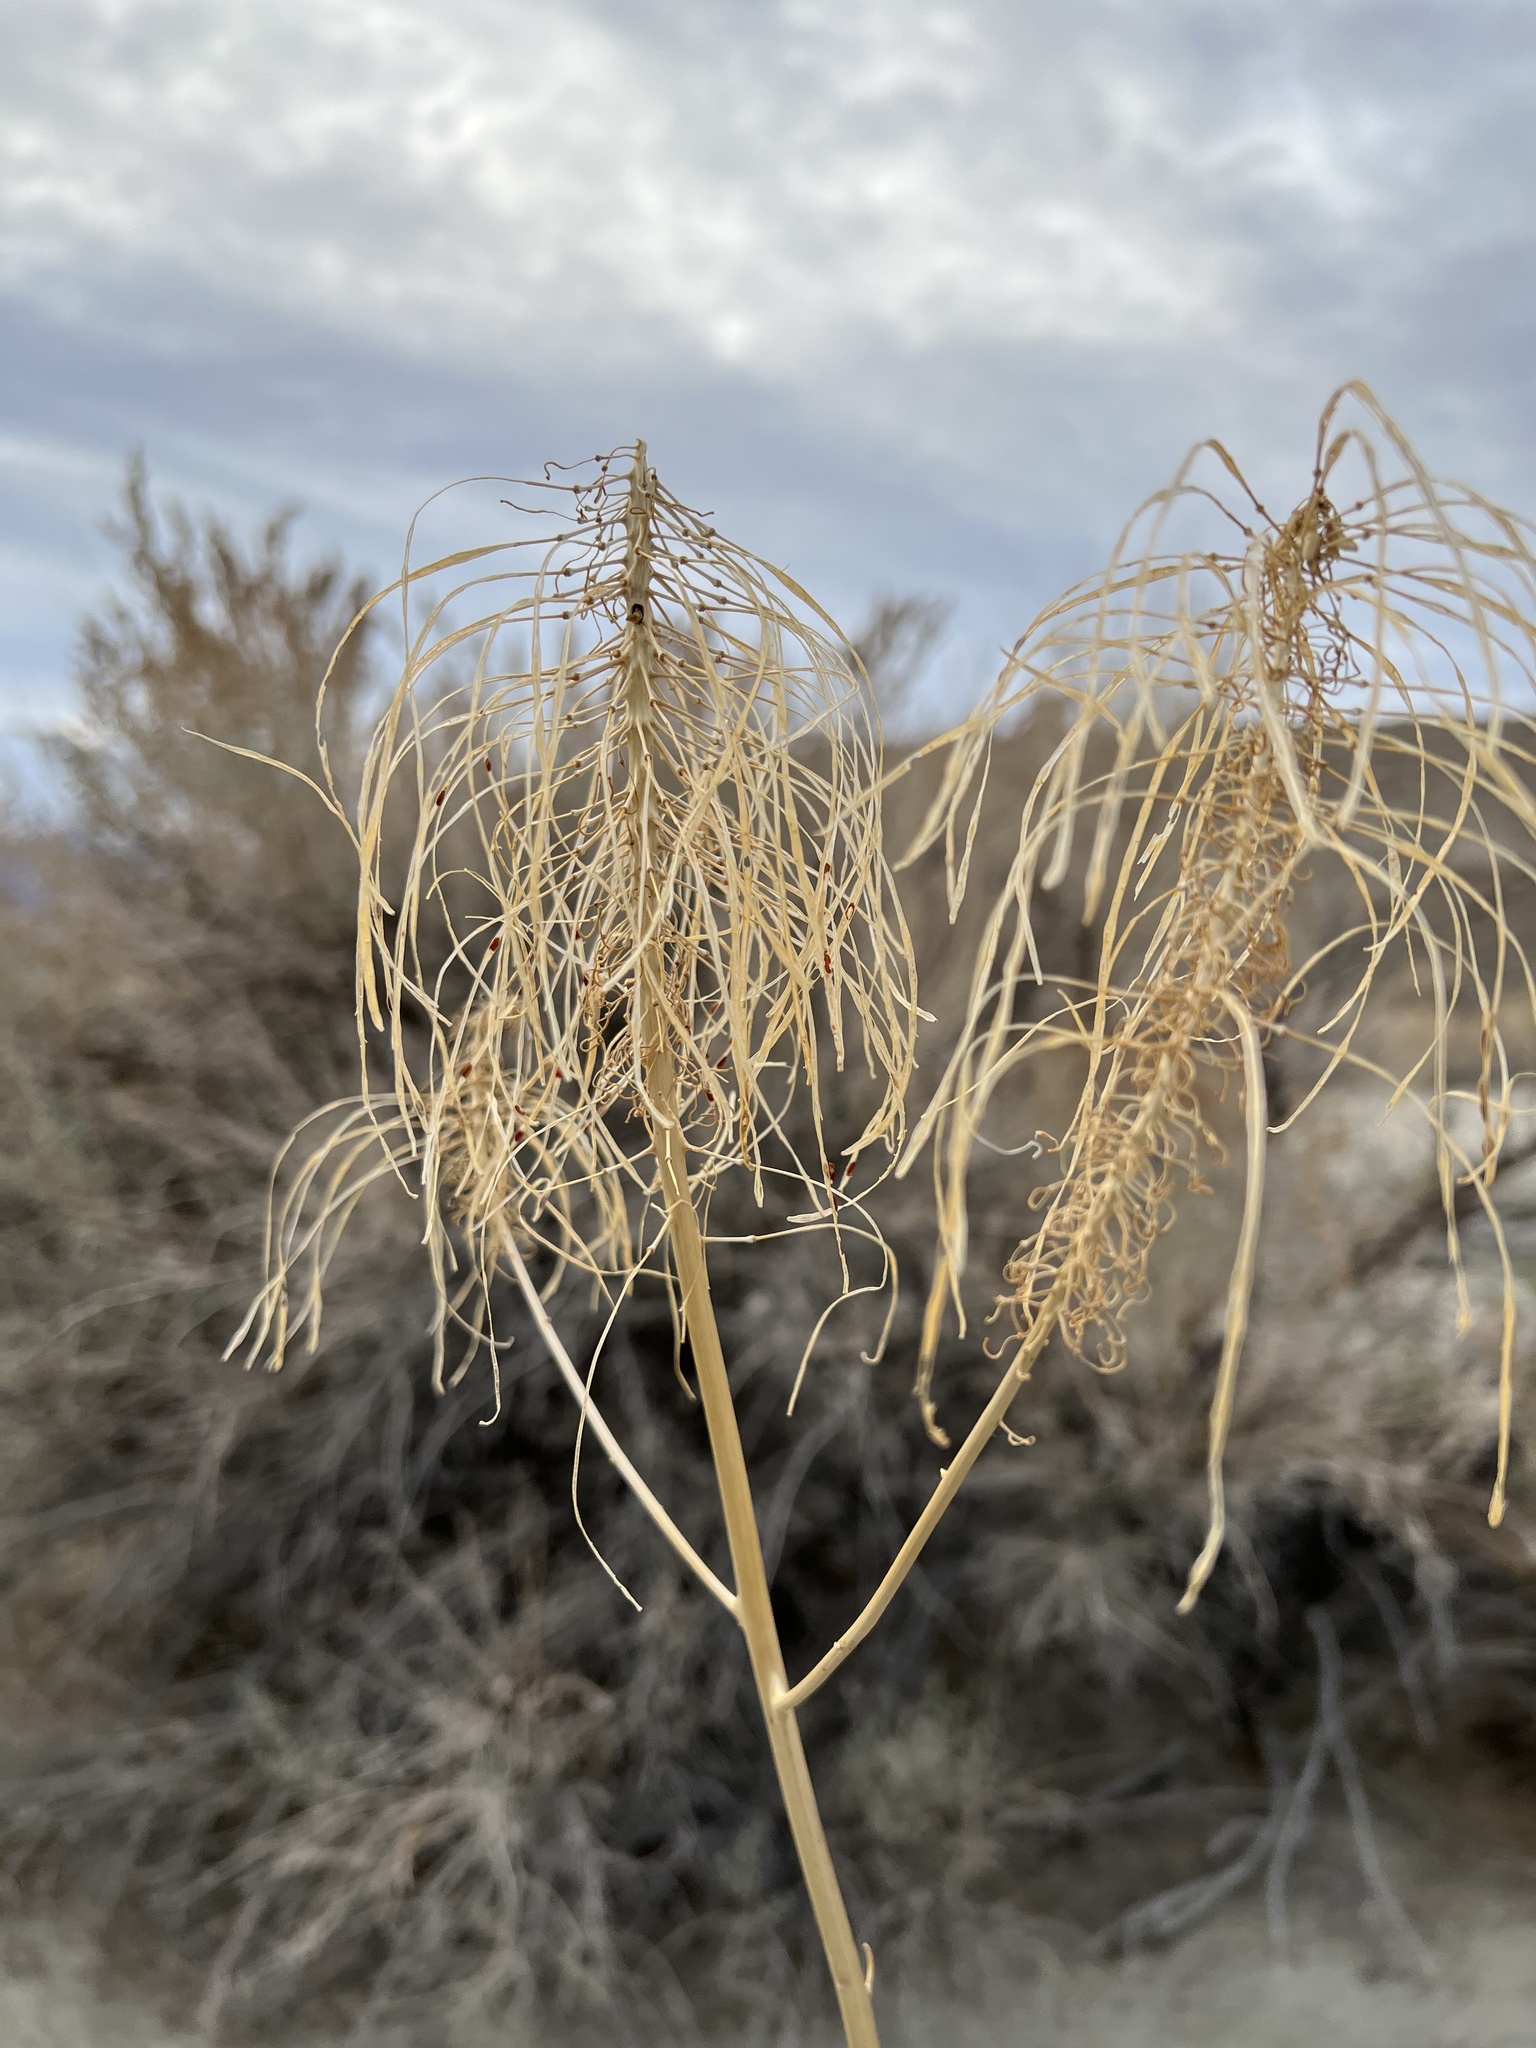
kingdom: Plantae
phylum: Tracheophyta
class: Magnoliopsida
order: Brassicales
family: Brassicaceae
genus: Stanleya
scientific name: Stanleya elata
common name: Panamint prince's plume
